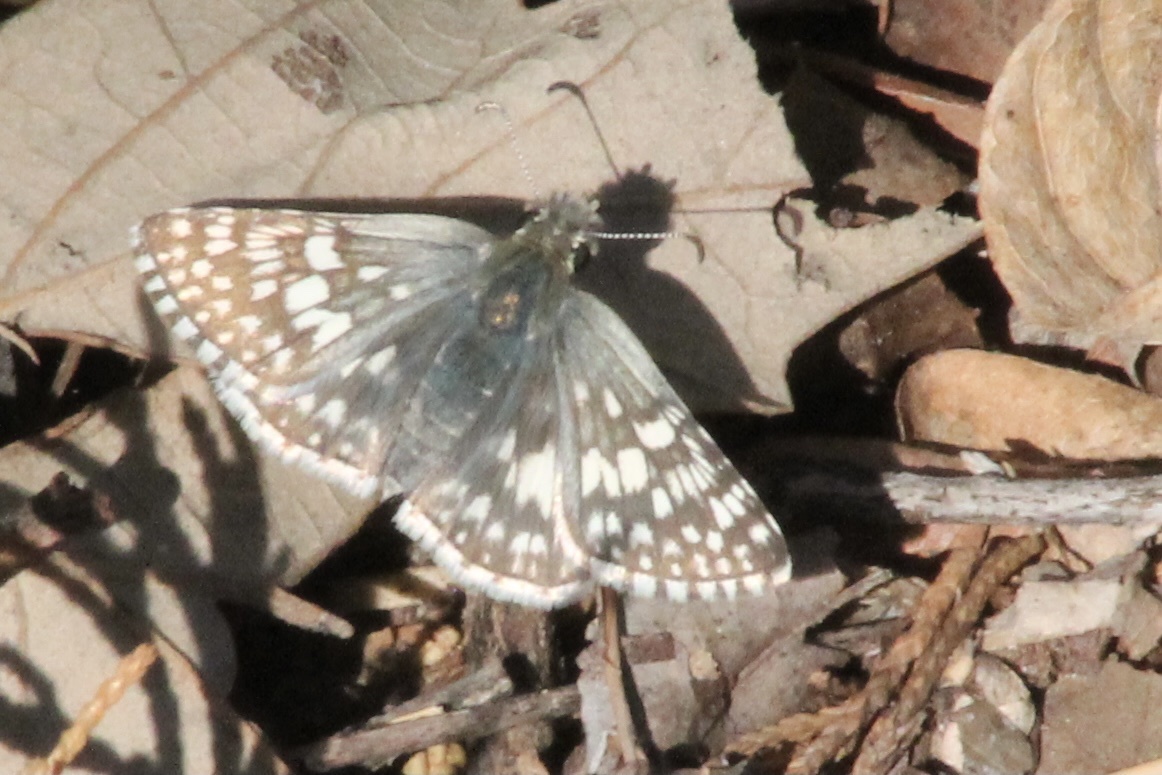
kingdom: Animalia
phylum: Arthropoda
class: Insecta
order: Lepidoptera
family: Hesperiidae
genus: Burnsius
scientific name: Burnsius communis
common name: Common checkered-skipper
